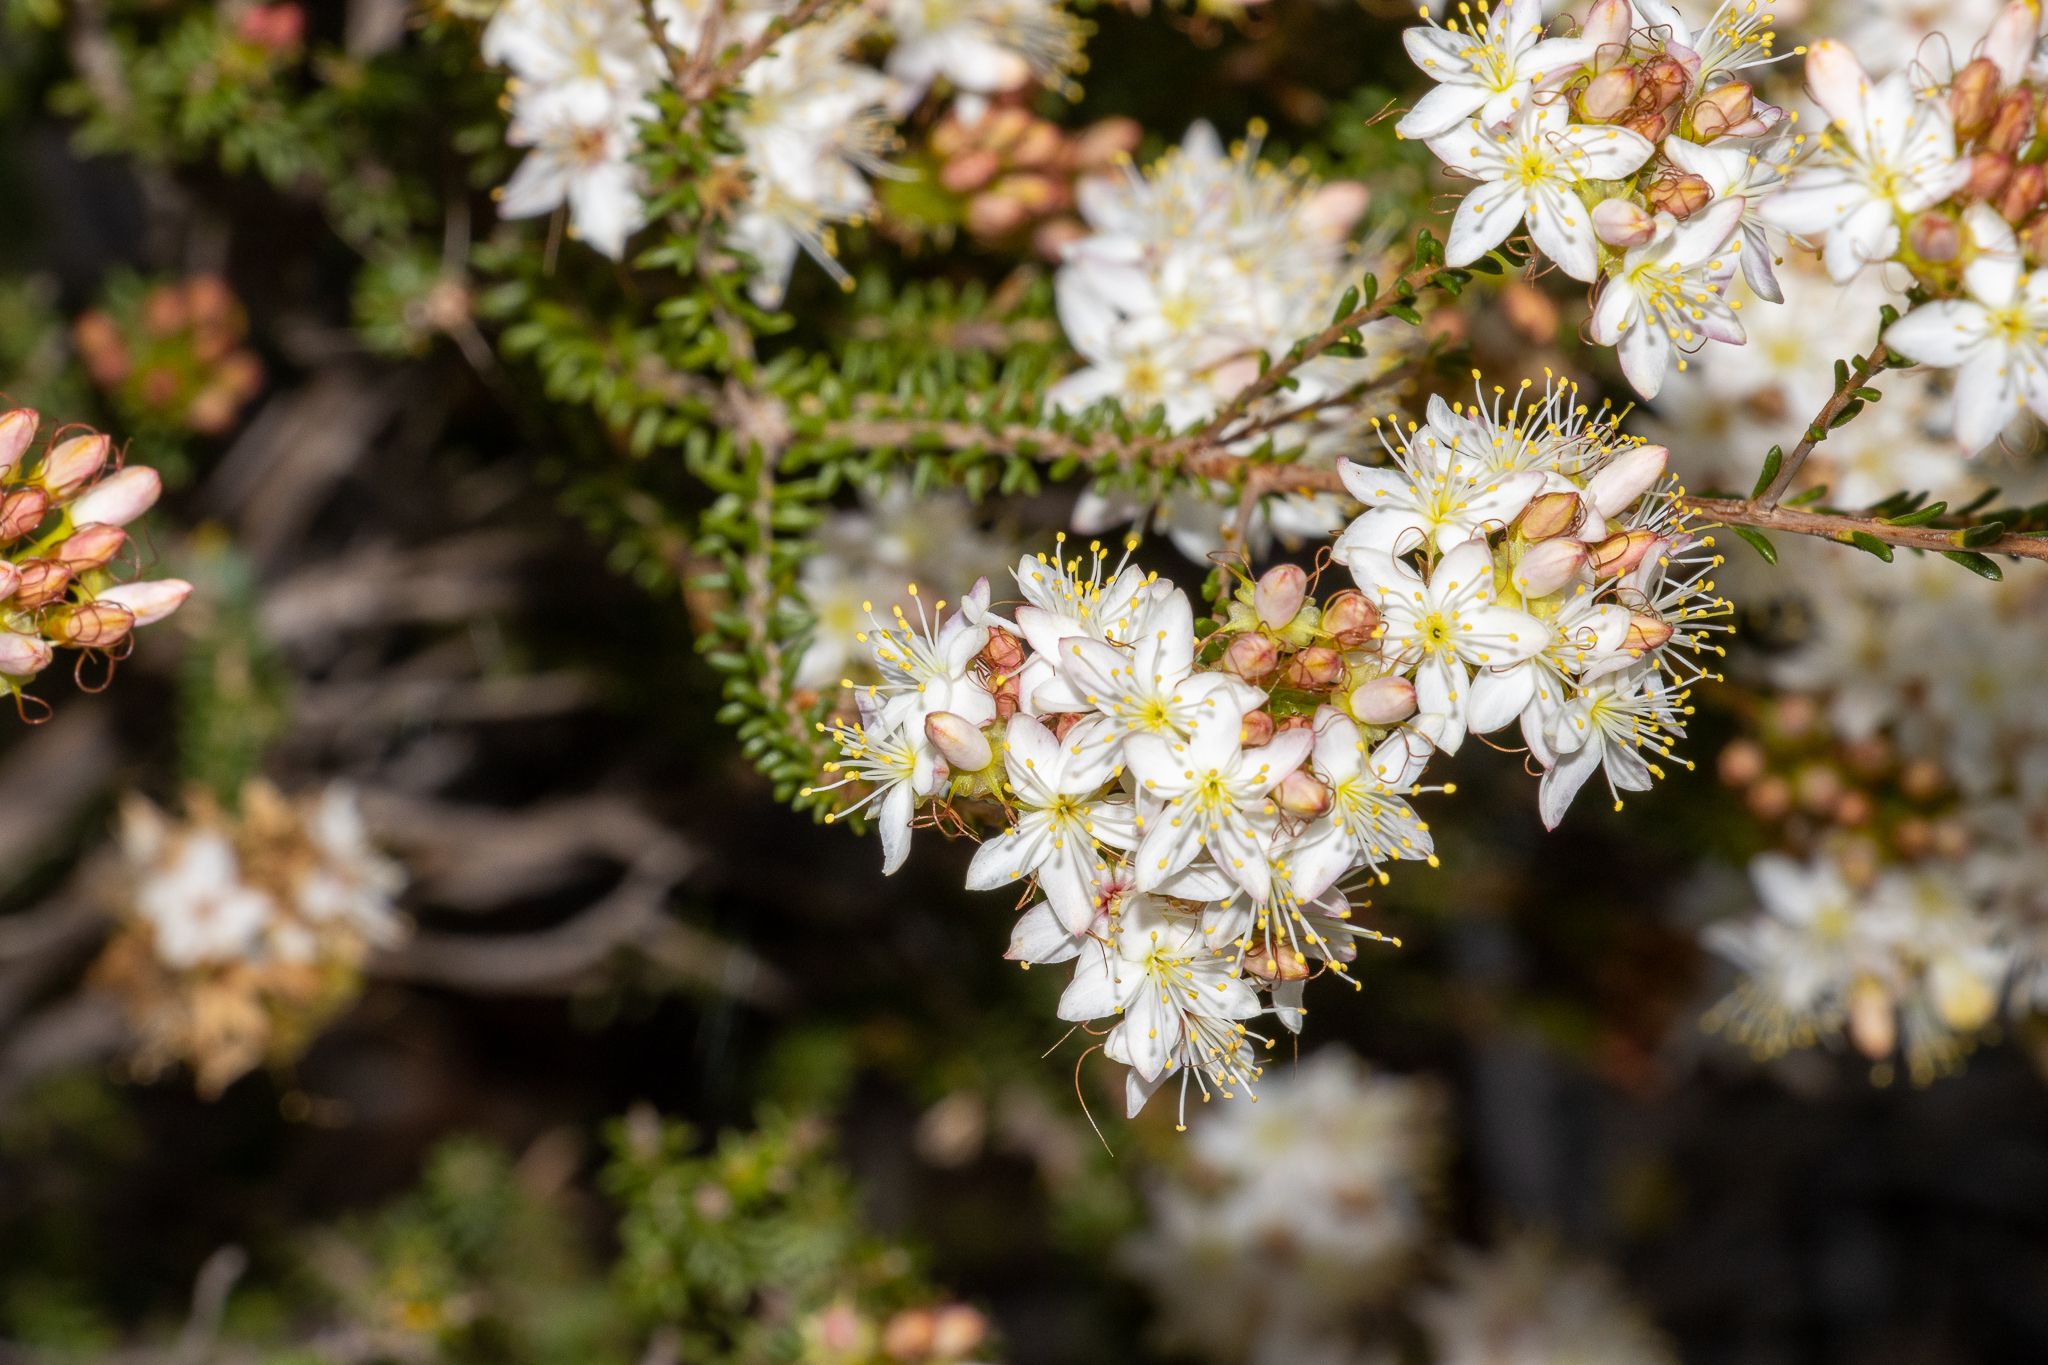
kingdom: Plantae
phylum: Tracheophyta
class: Magnoliopsida
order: Myrtales
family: Myrtaceae
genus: Calytrix
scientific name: Calytrix tetragona
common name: Common fringe myrtle
